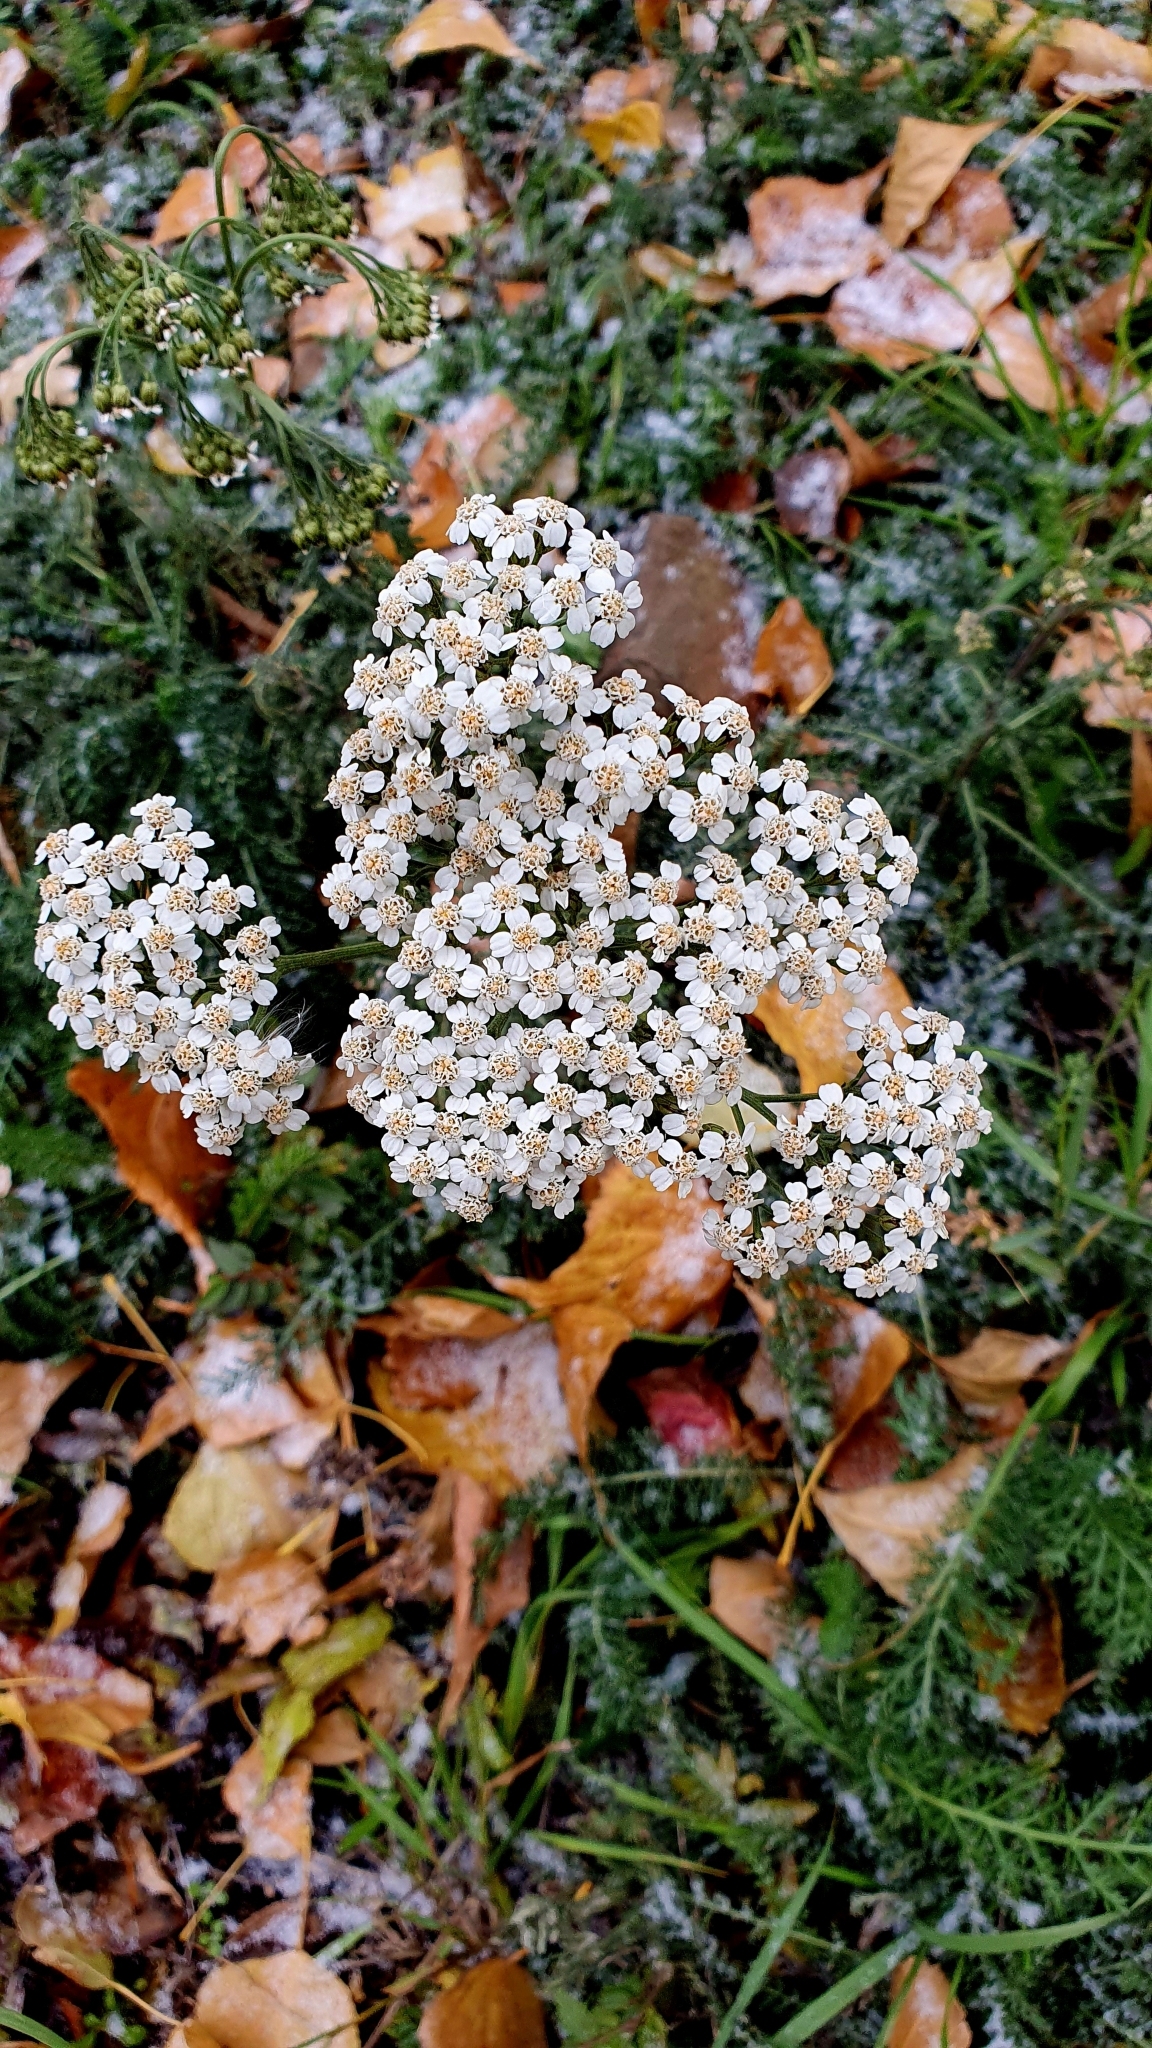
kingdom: Plantae
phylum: Tracheophyta
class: Magnoliopsida
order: Asterales
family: Asteraceae
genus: Achillea
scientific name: Achillea millefolium
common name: Yarrow
